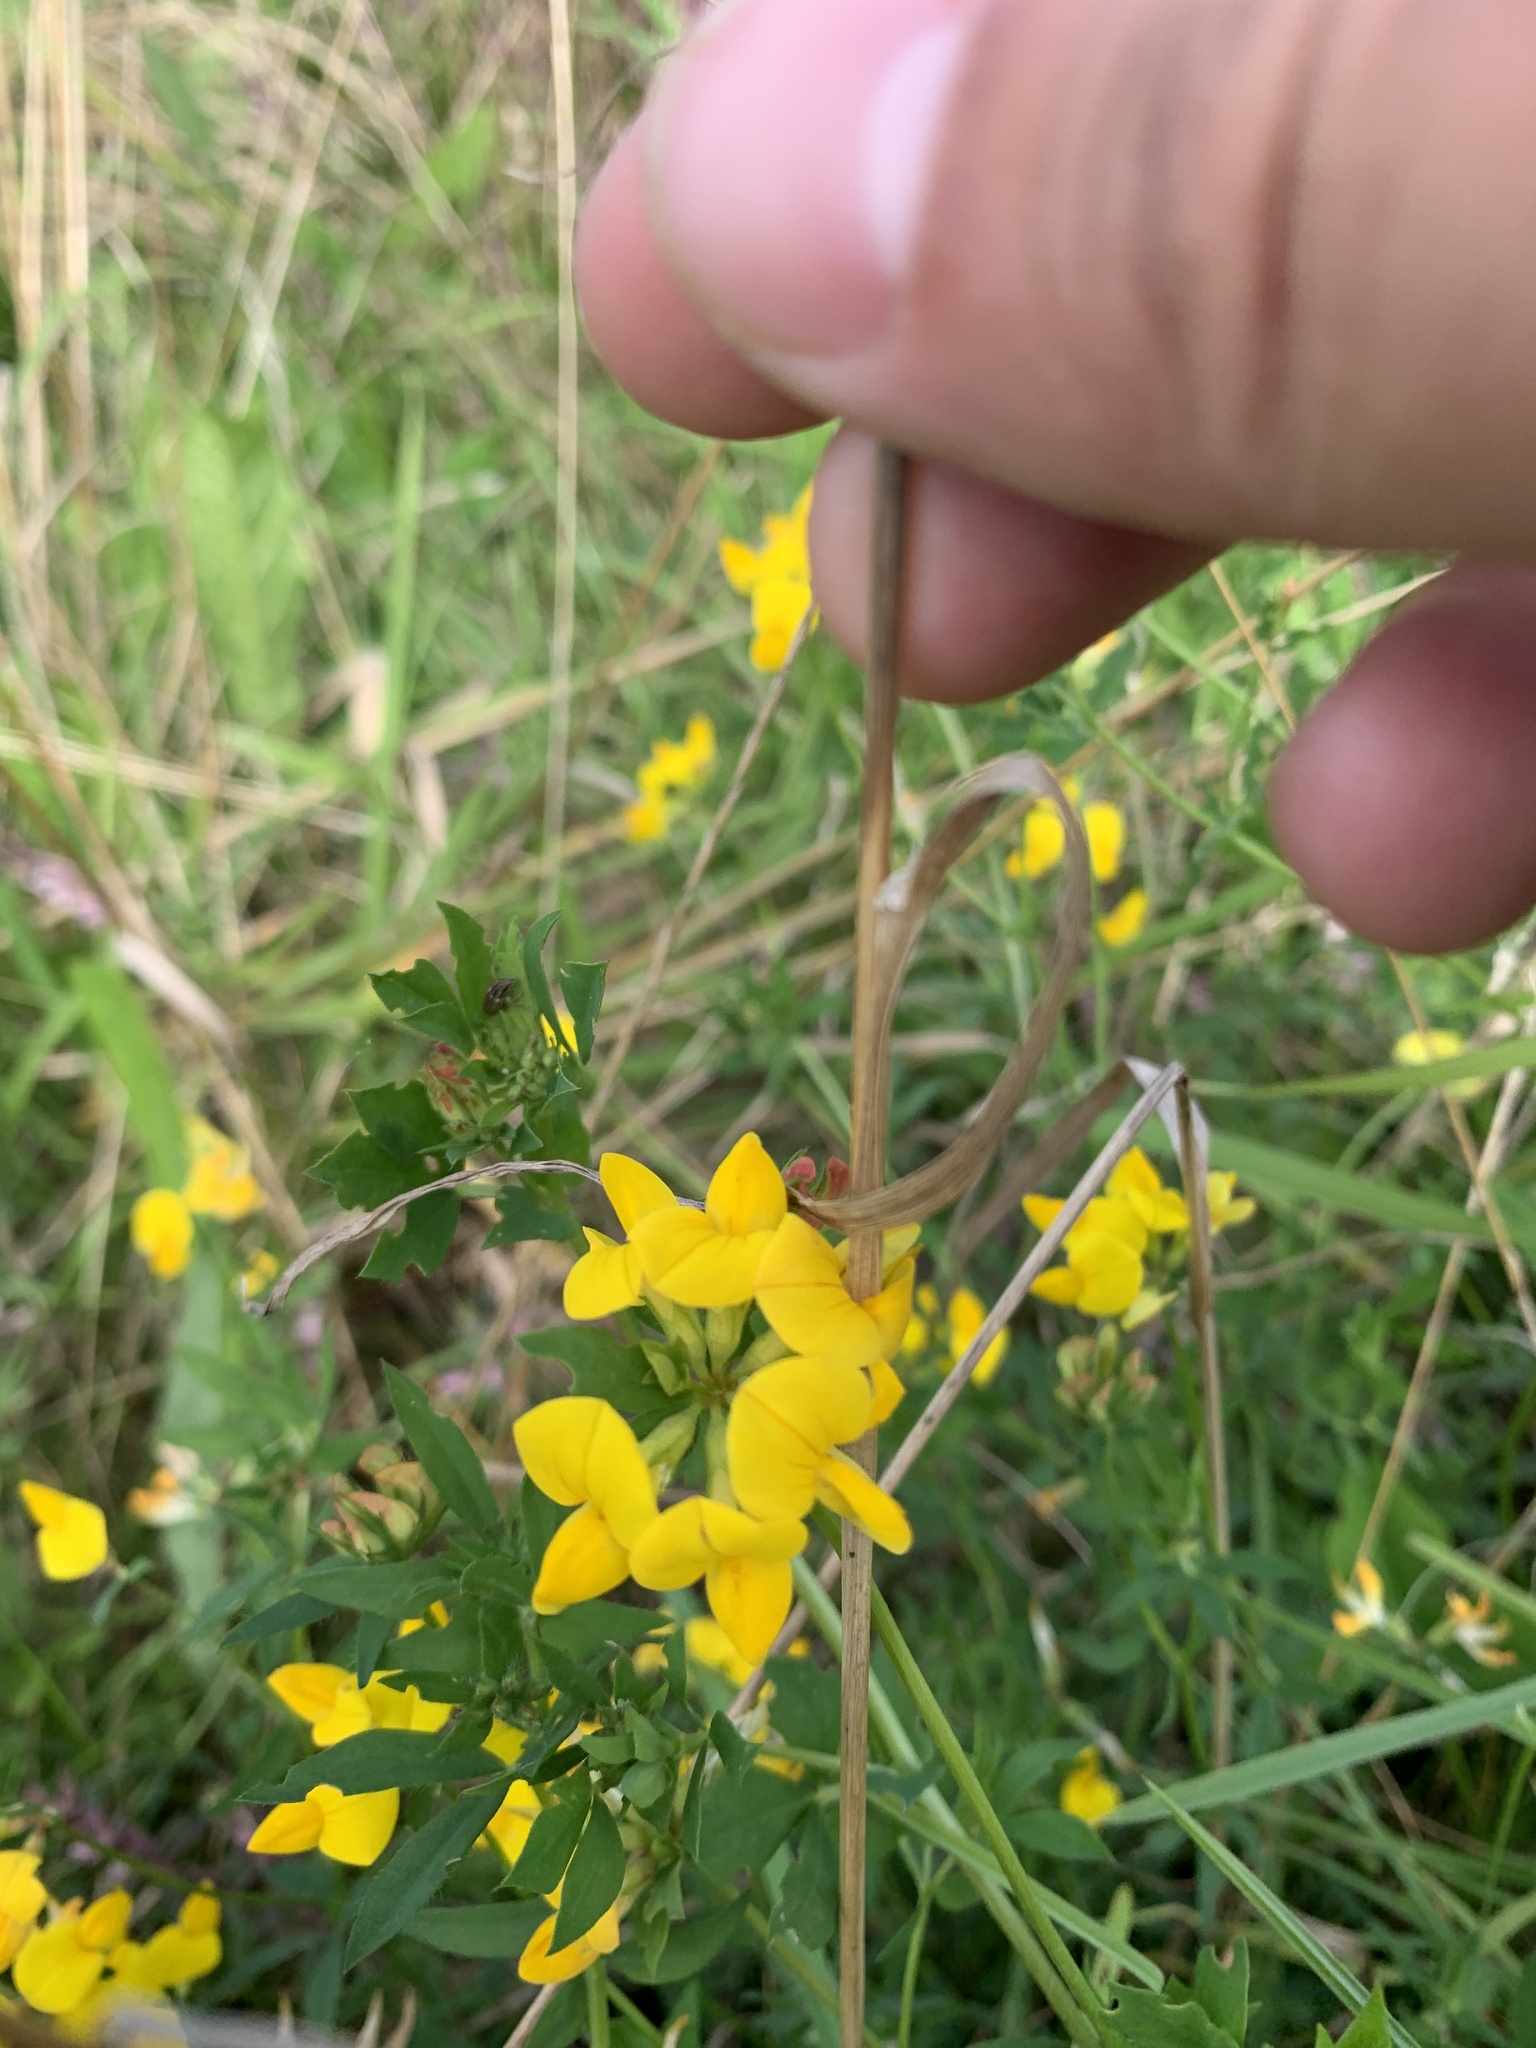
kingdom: Plantae
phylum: Tracheophyta
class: Magnoliopsida
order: Fabales
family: Fabaceae
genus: Lotus
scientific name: Lotus corniculatus
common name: Common bird's-foot-trefoil
